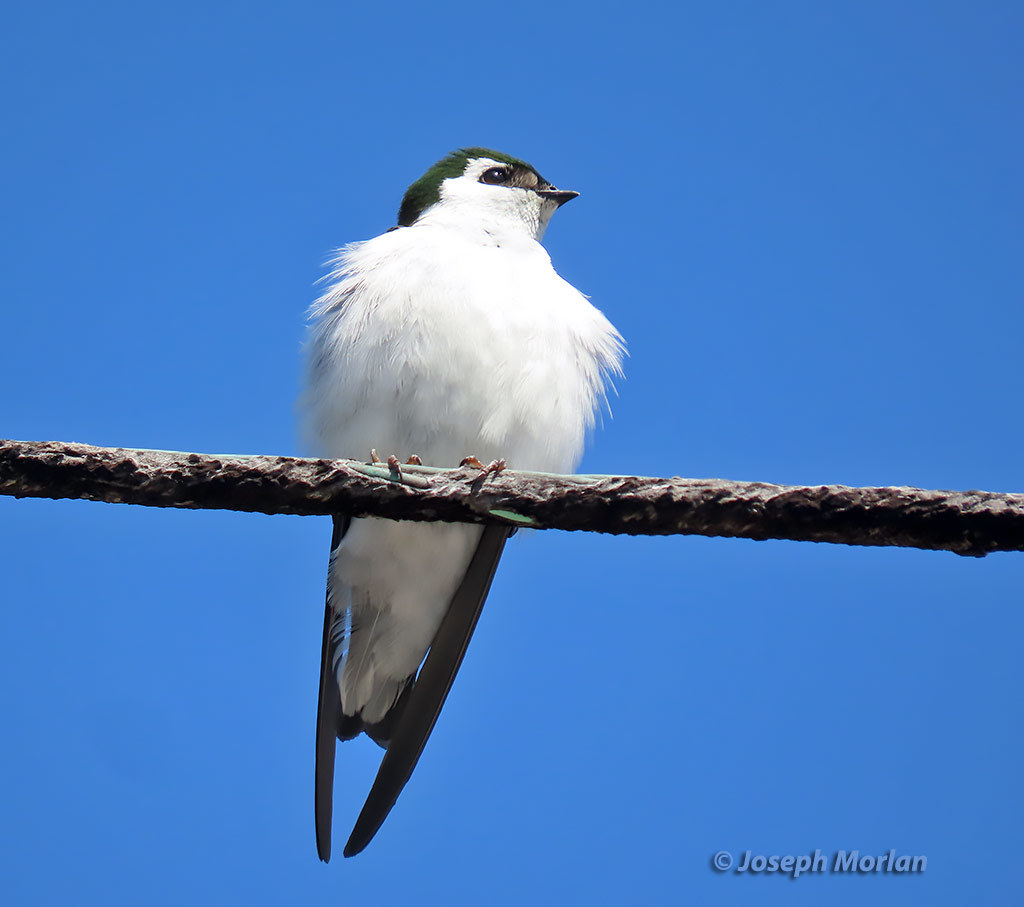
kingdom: Animalia
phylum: Chordata
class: Aves
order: Passeriformes
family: Hirundinidae
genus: Tachycineta
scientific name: Tachycineta thalassina
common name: Violet-green swallow
